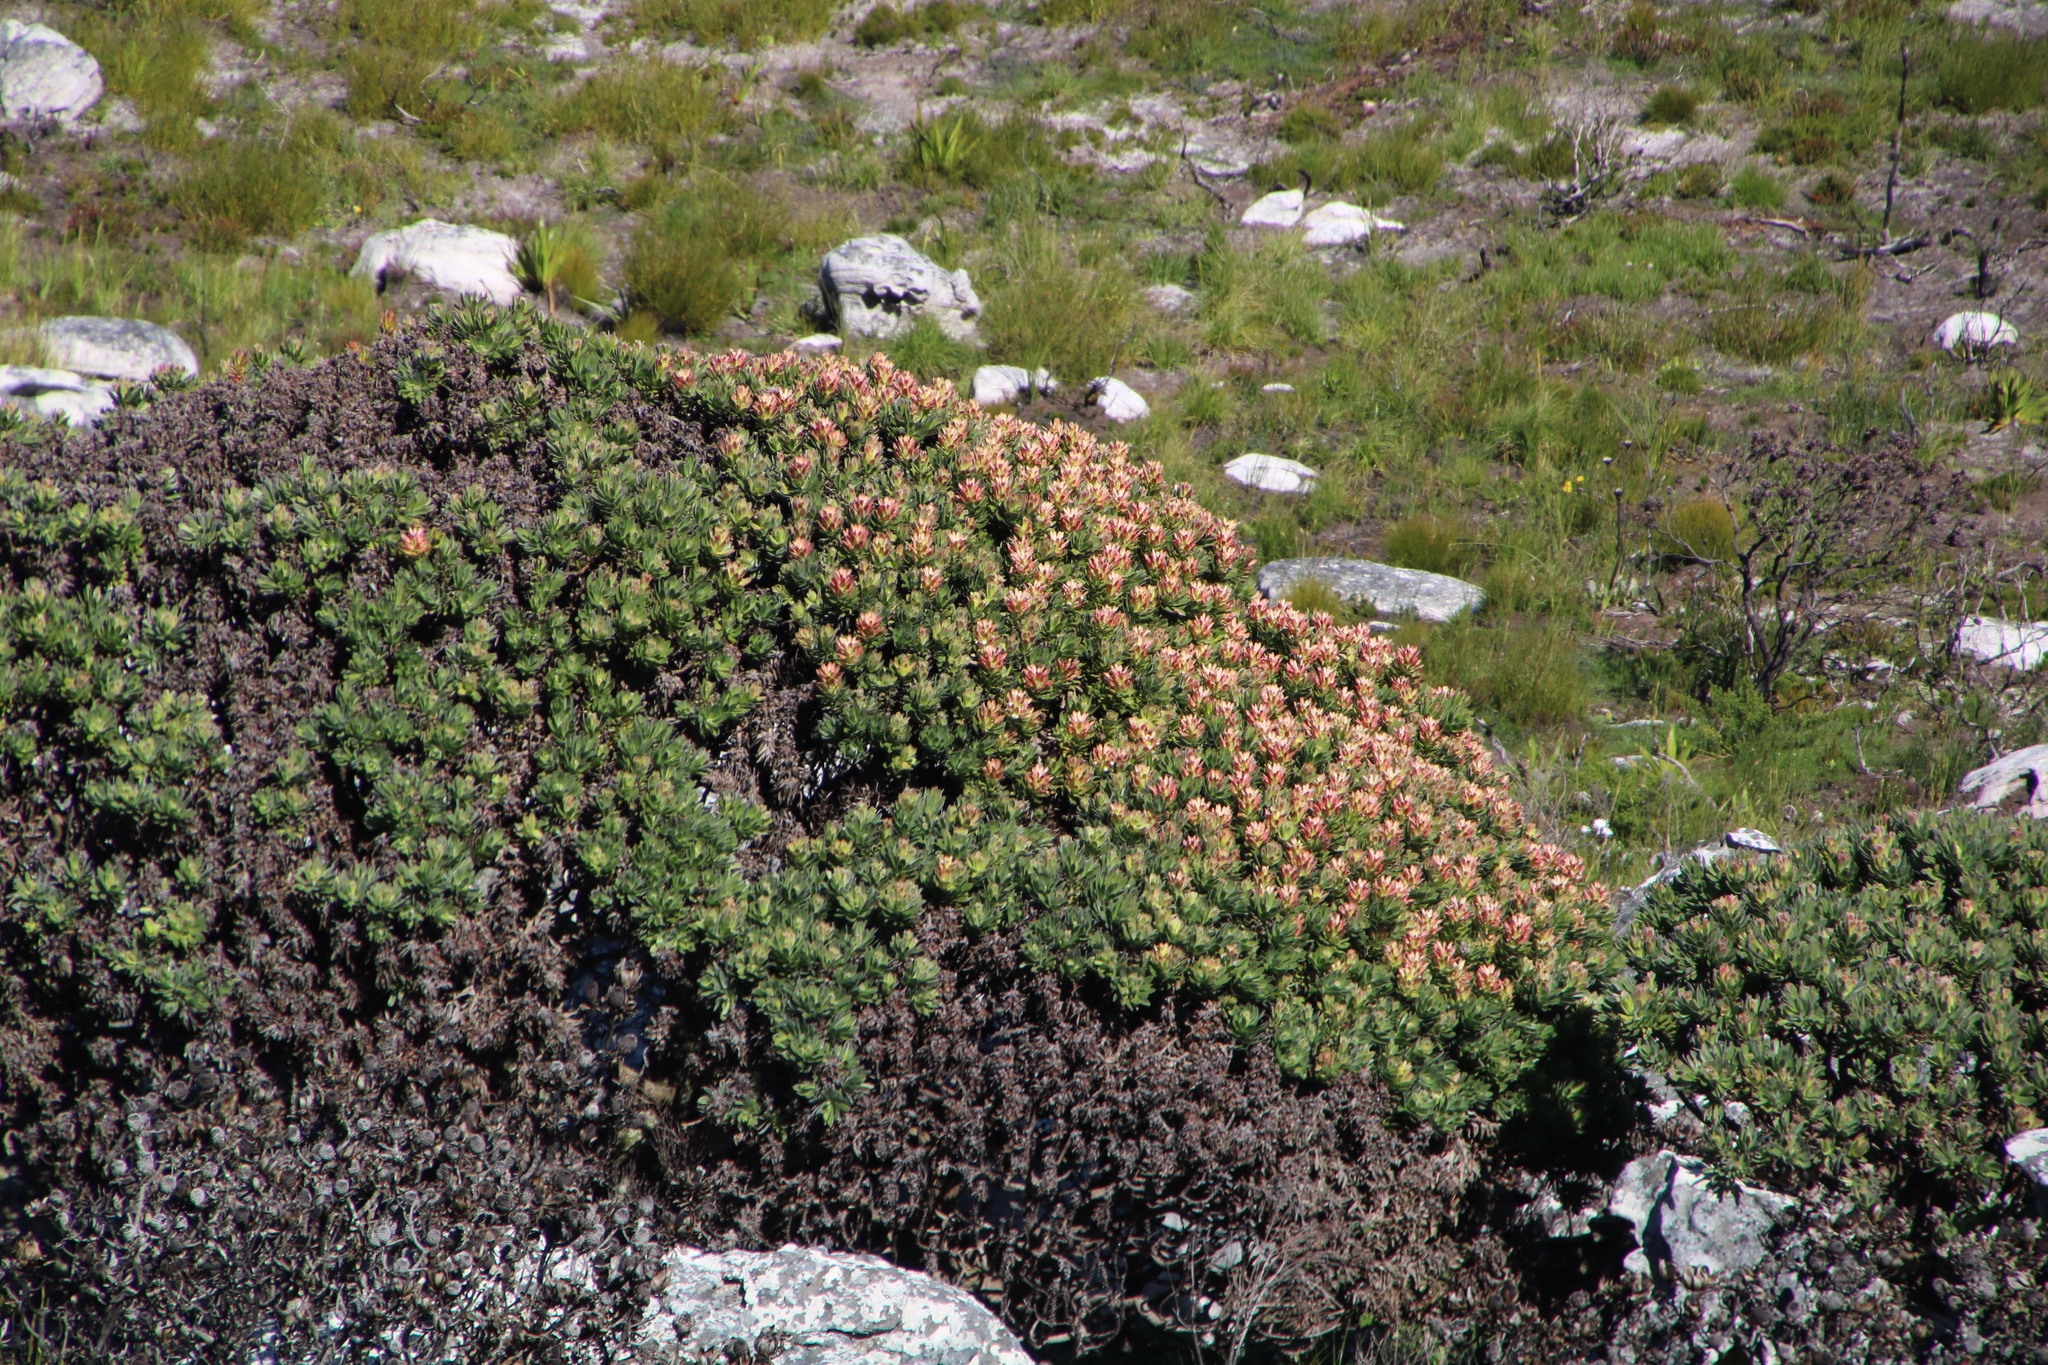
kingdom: Plantae
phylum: Tracheophyta
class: Magnoliopsida
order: Proteales
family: Proteaceae
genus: Mimetes
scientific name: Mimetes fimbriifolius
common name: Fringed bottlebrush
